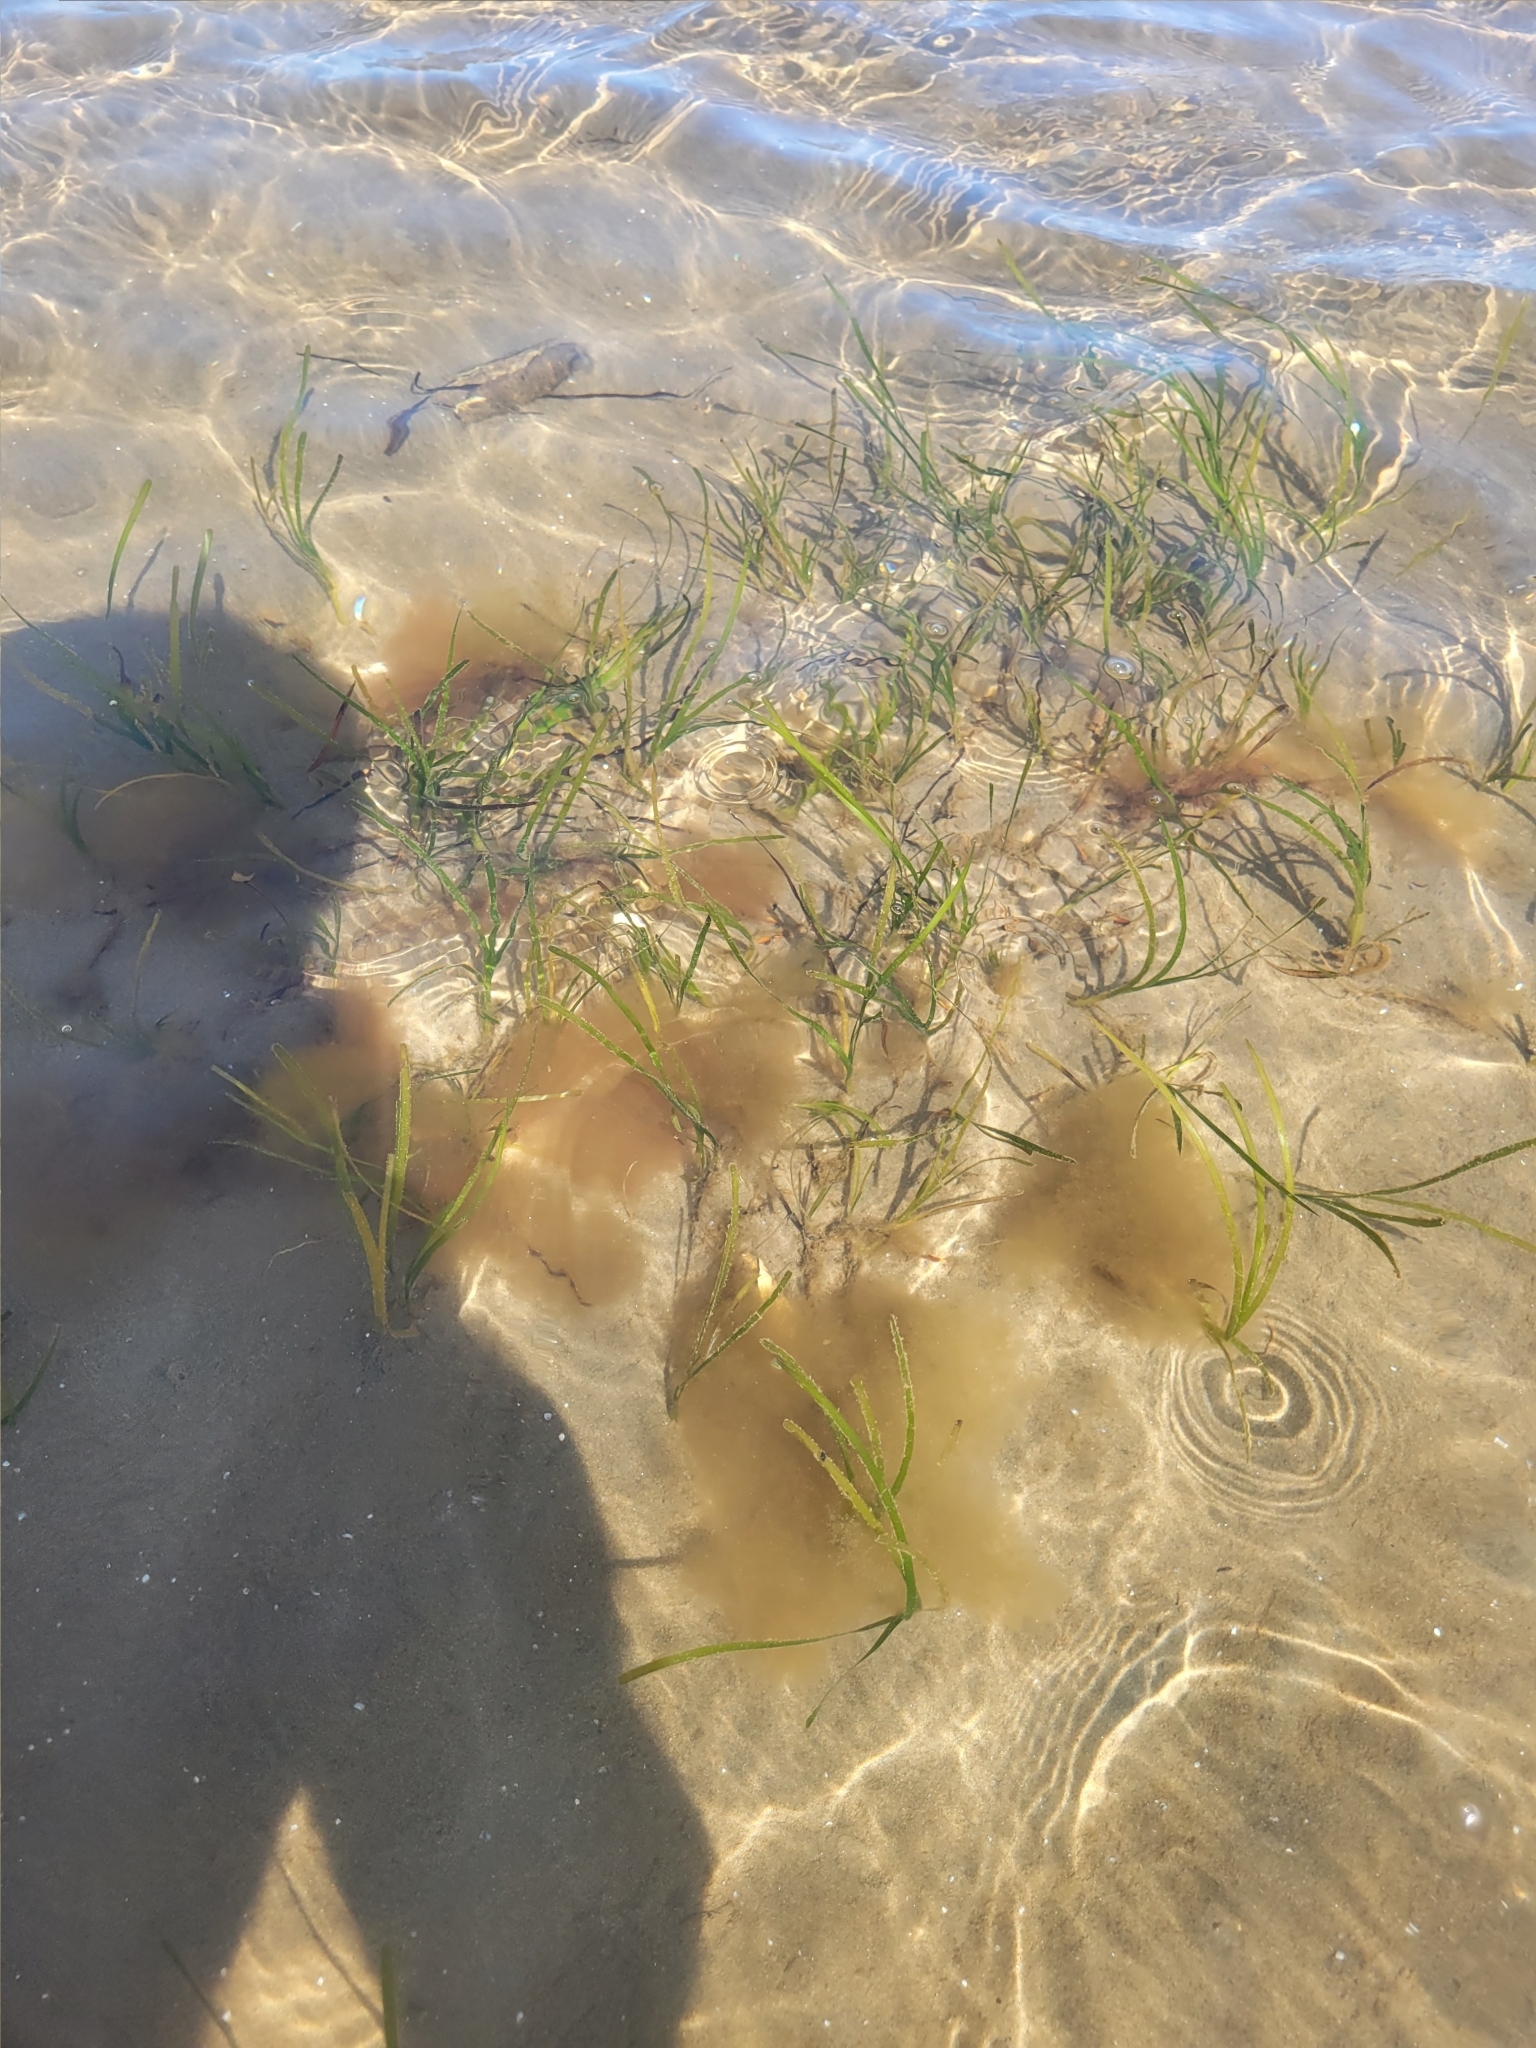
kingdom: Plantae
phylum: Tracheophyta
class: Liliopsida
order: Alismatales
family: Zosteraceae
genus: Zostera
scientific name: Zostera marina
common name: Eelgrass
